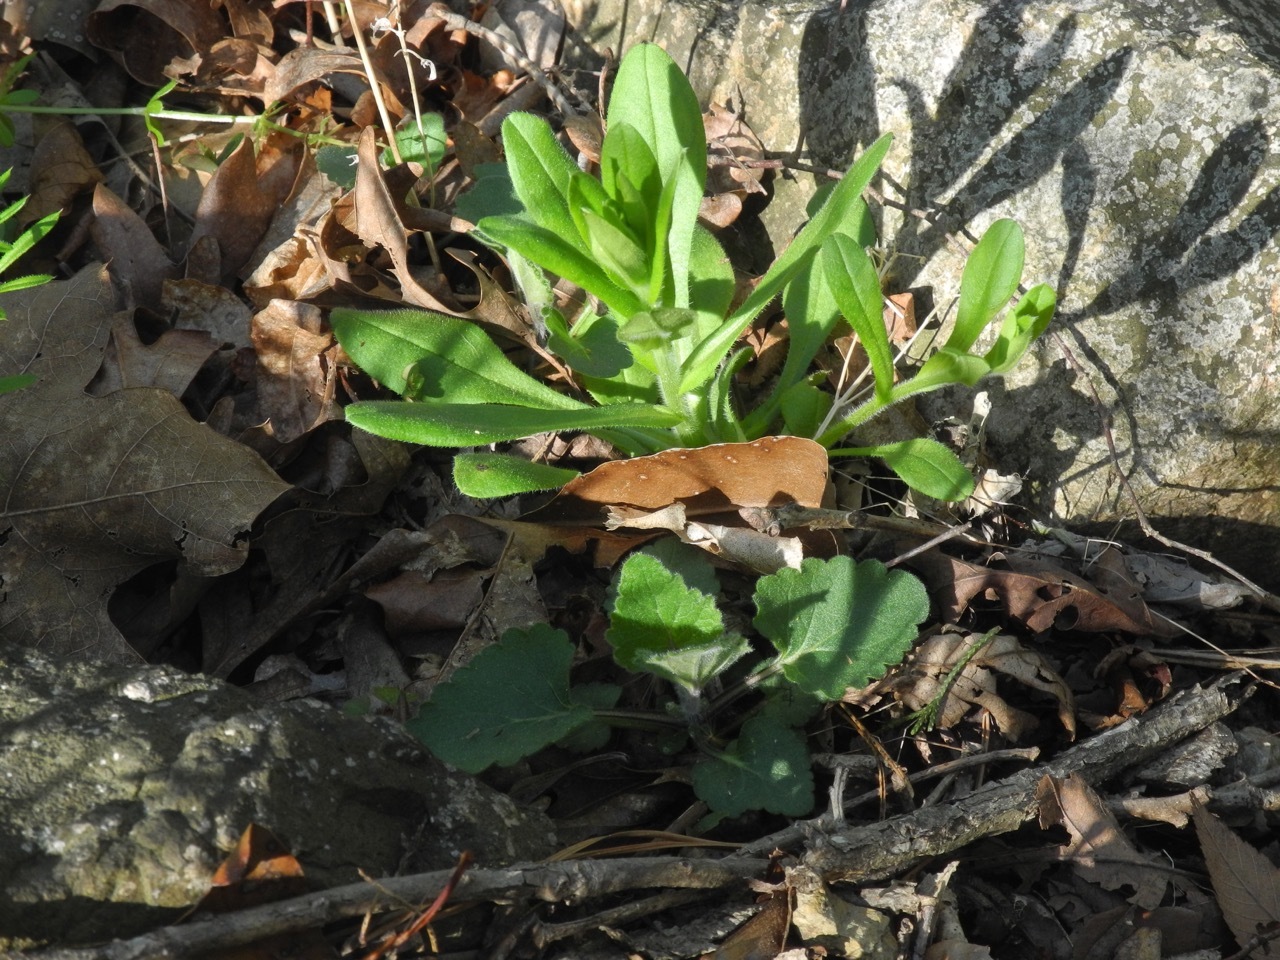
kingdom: Plantae
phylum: Tracheophyta
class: Magnoliopsida
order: Boraginales
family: Boraginaceae
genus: Myosotis
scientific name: Myosotis macrosperma
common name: Large-seed forget-me-not
